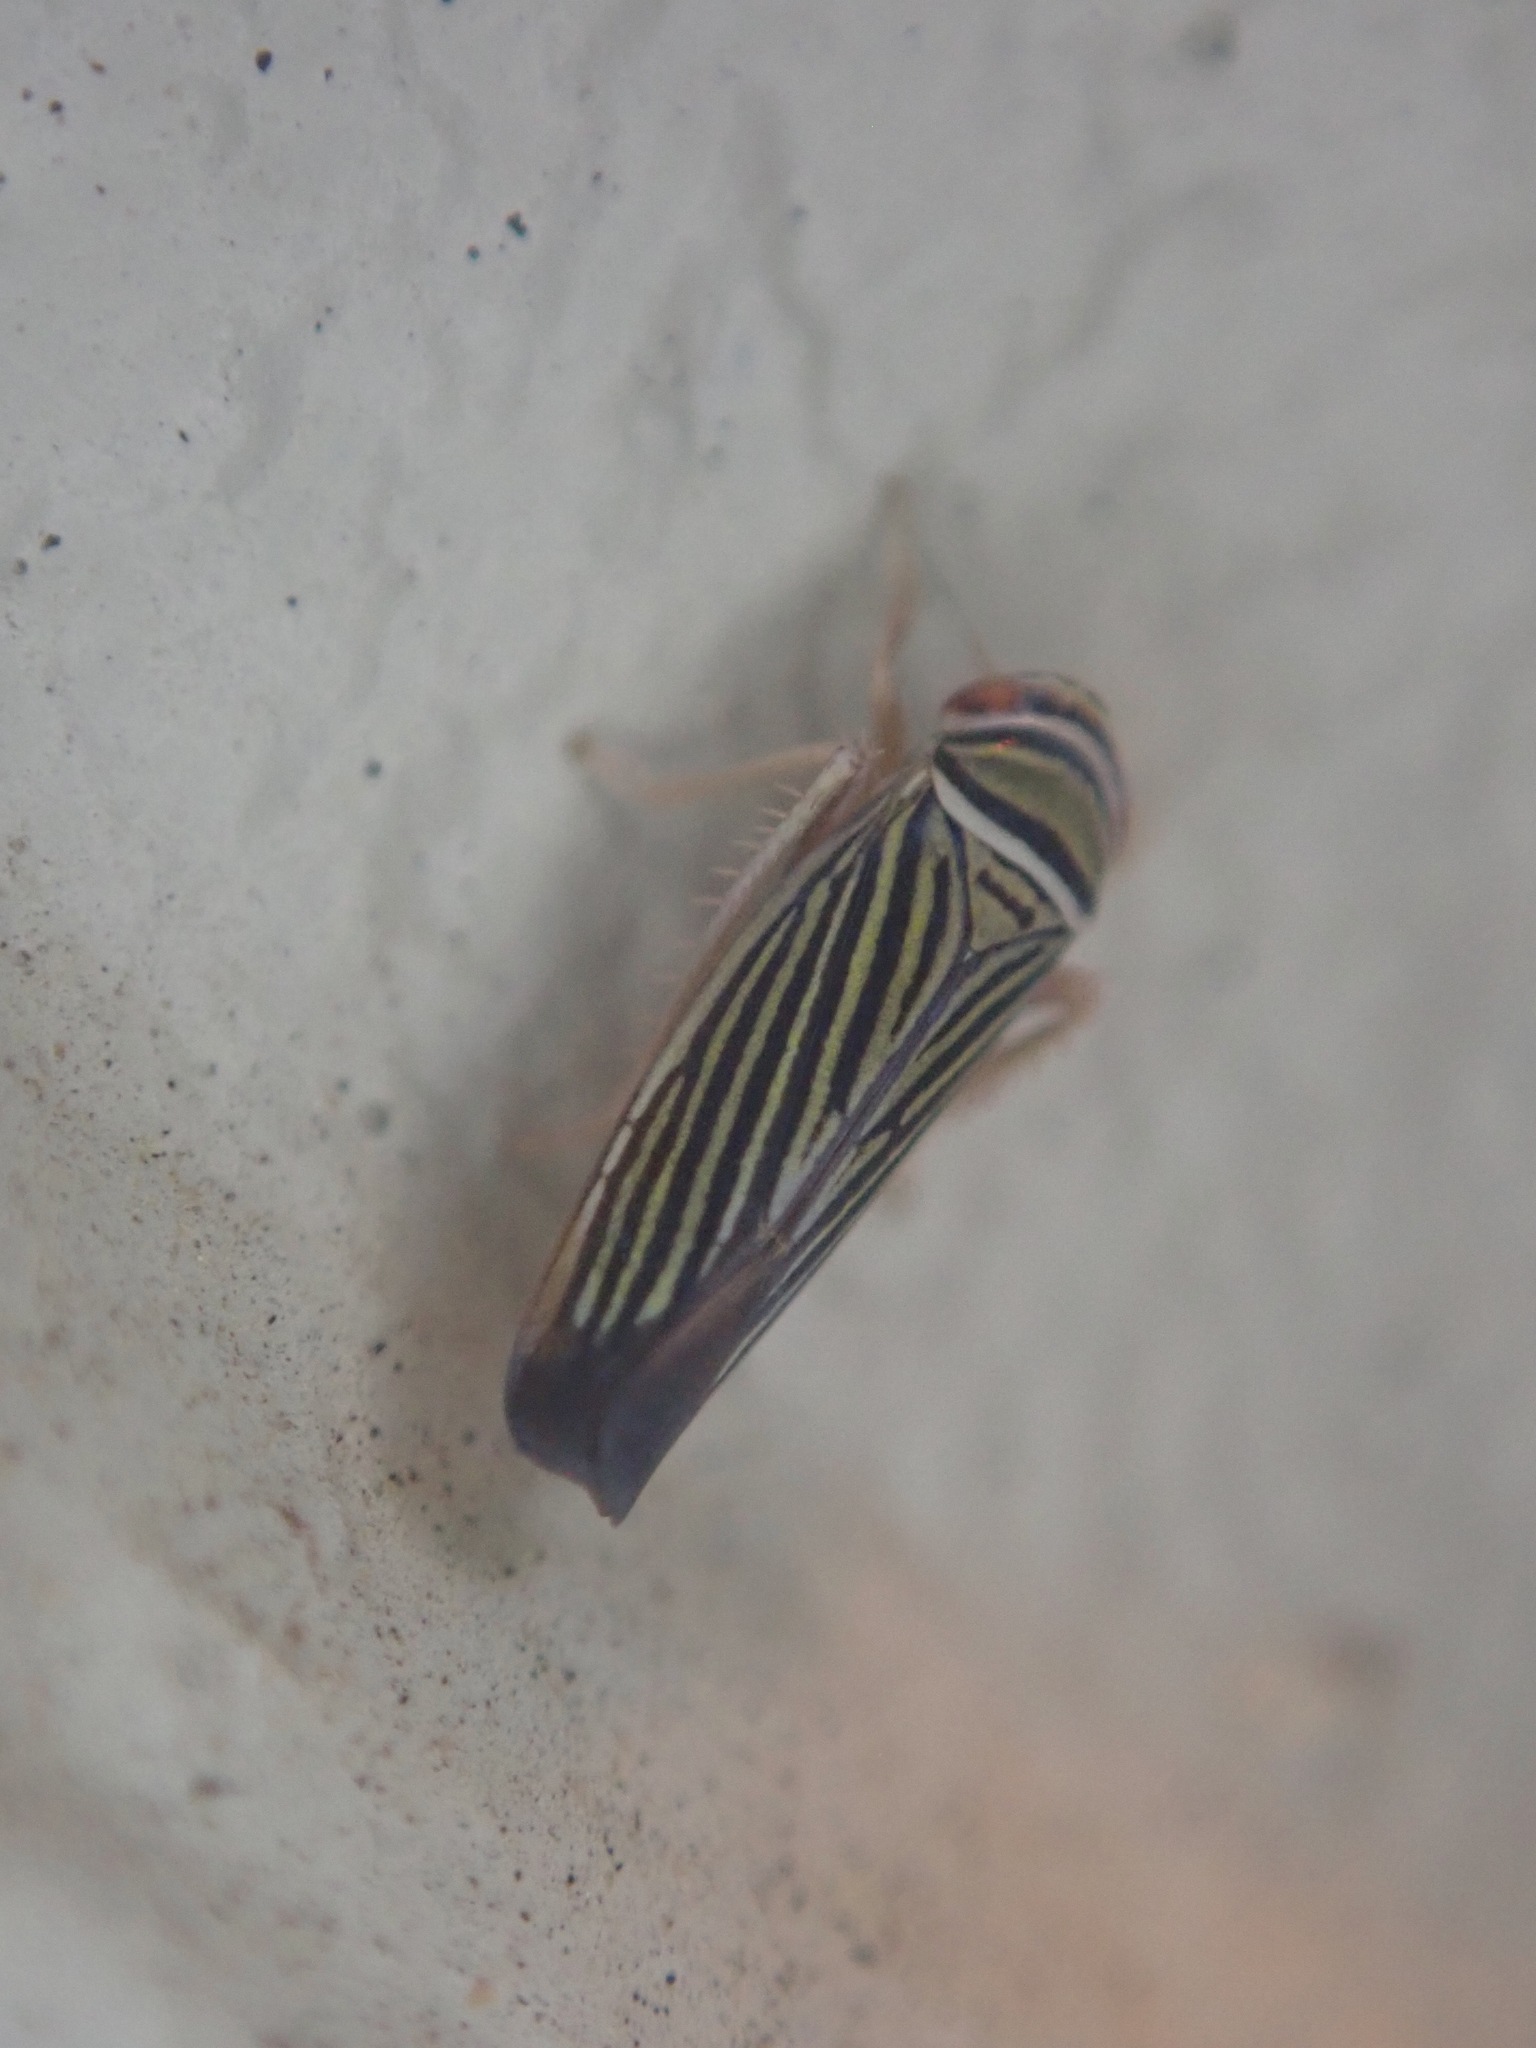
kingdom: Animalia
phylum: Arthropoda
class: Insecta
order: Hemiptera
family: Cicadellidae
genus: Tylozygus
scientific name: Tylozygus bifidus
